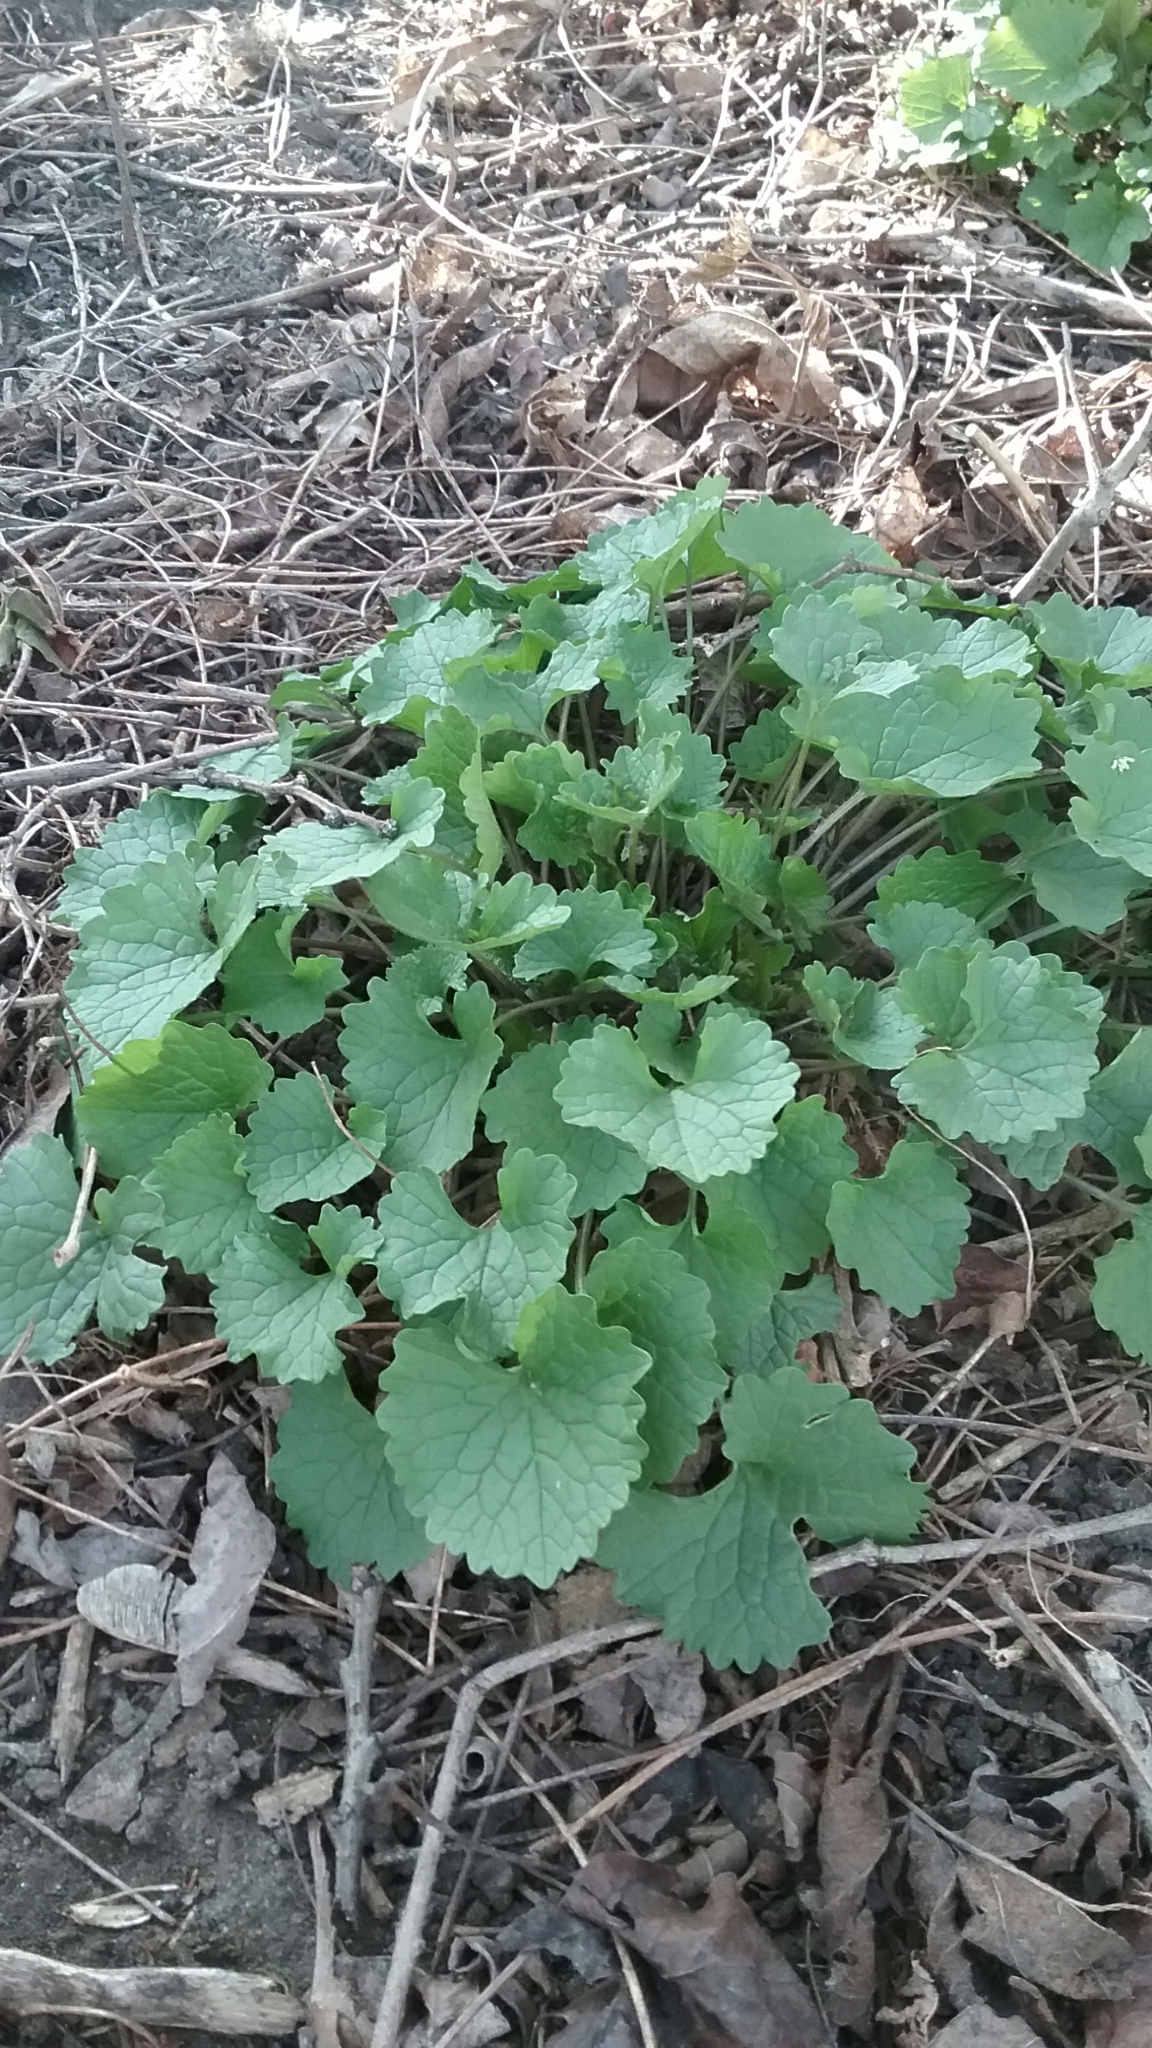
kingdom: Plantae
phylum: Tracheophyta
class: Magnoliopsida
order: Brassicales
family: Brassicaceae
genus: Alliaria
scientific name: Alliaria petiolata
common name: Garlic mustard
